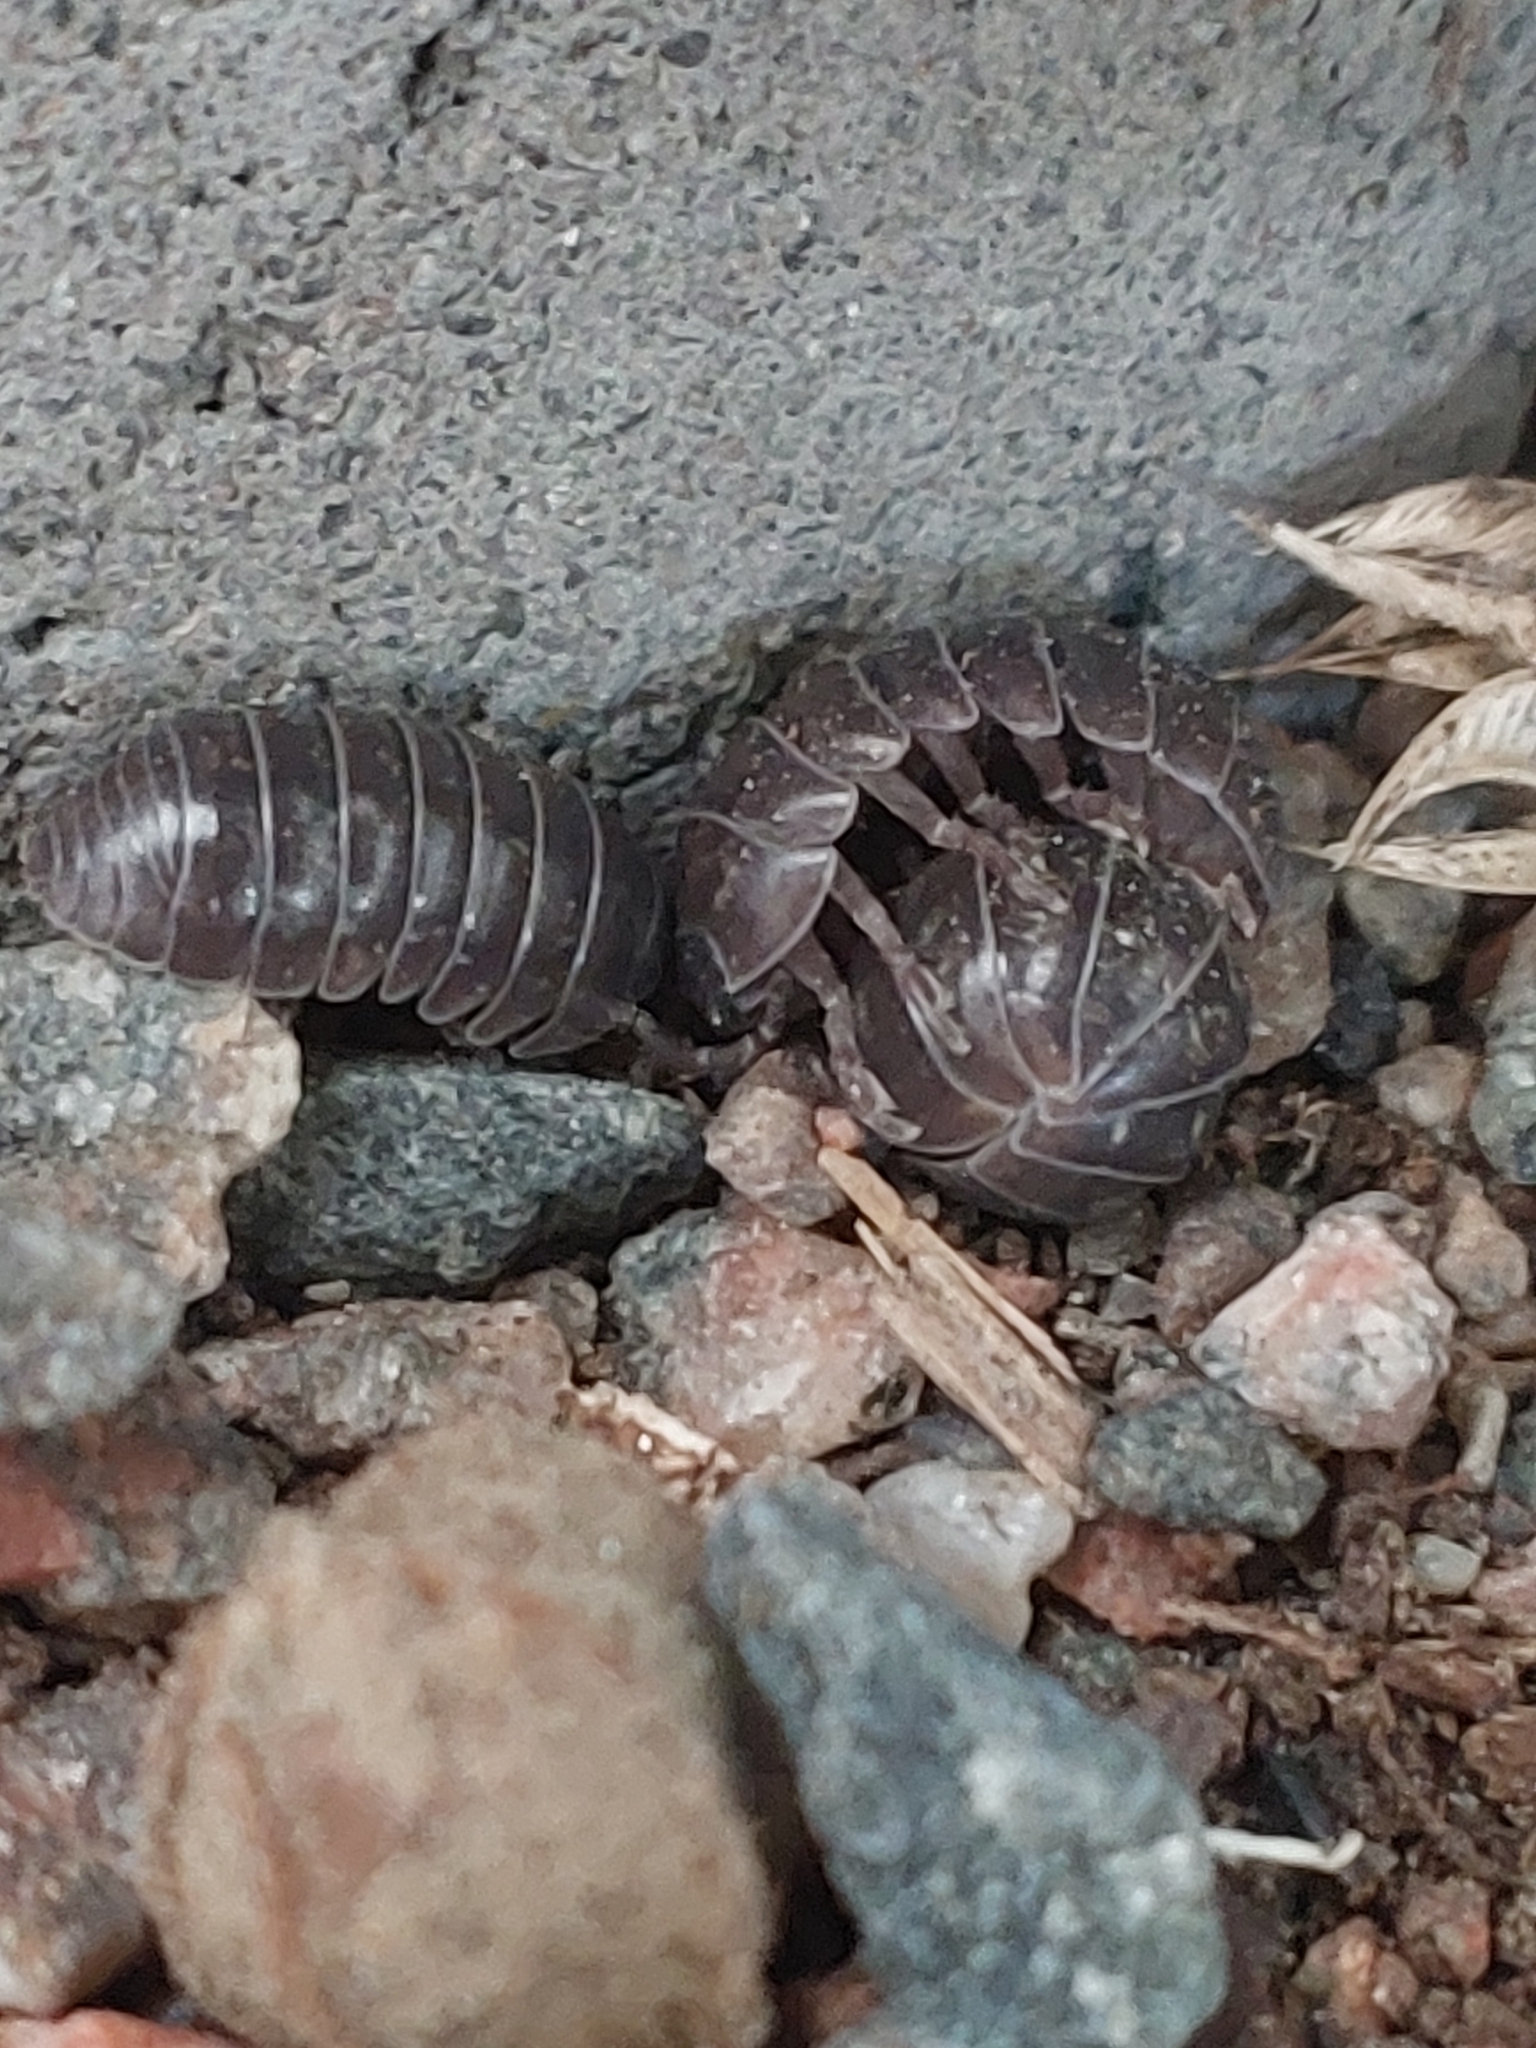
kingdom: Animalia
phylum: Arthropoda
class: Malacostraca
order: Isopoda
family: Armadillidiidae
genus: Armadillidium
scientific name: Armadillidium vulgare
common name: Common pill woodlouse
